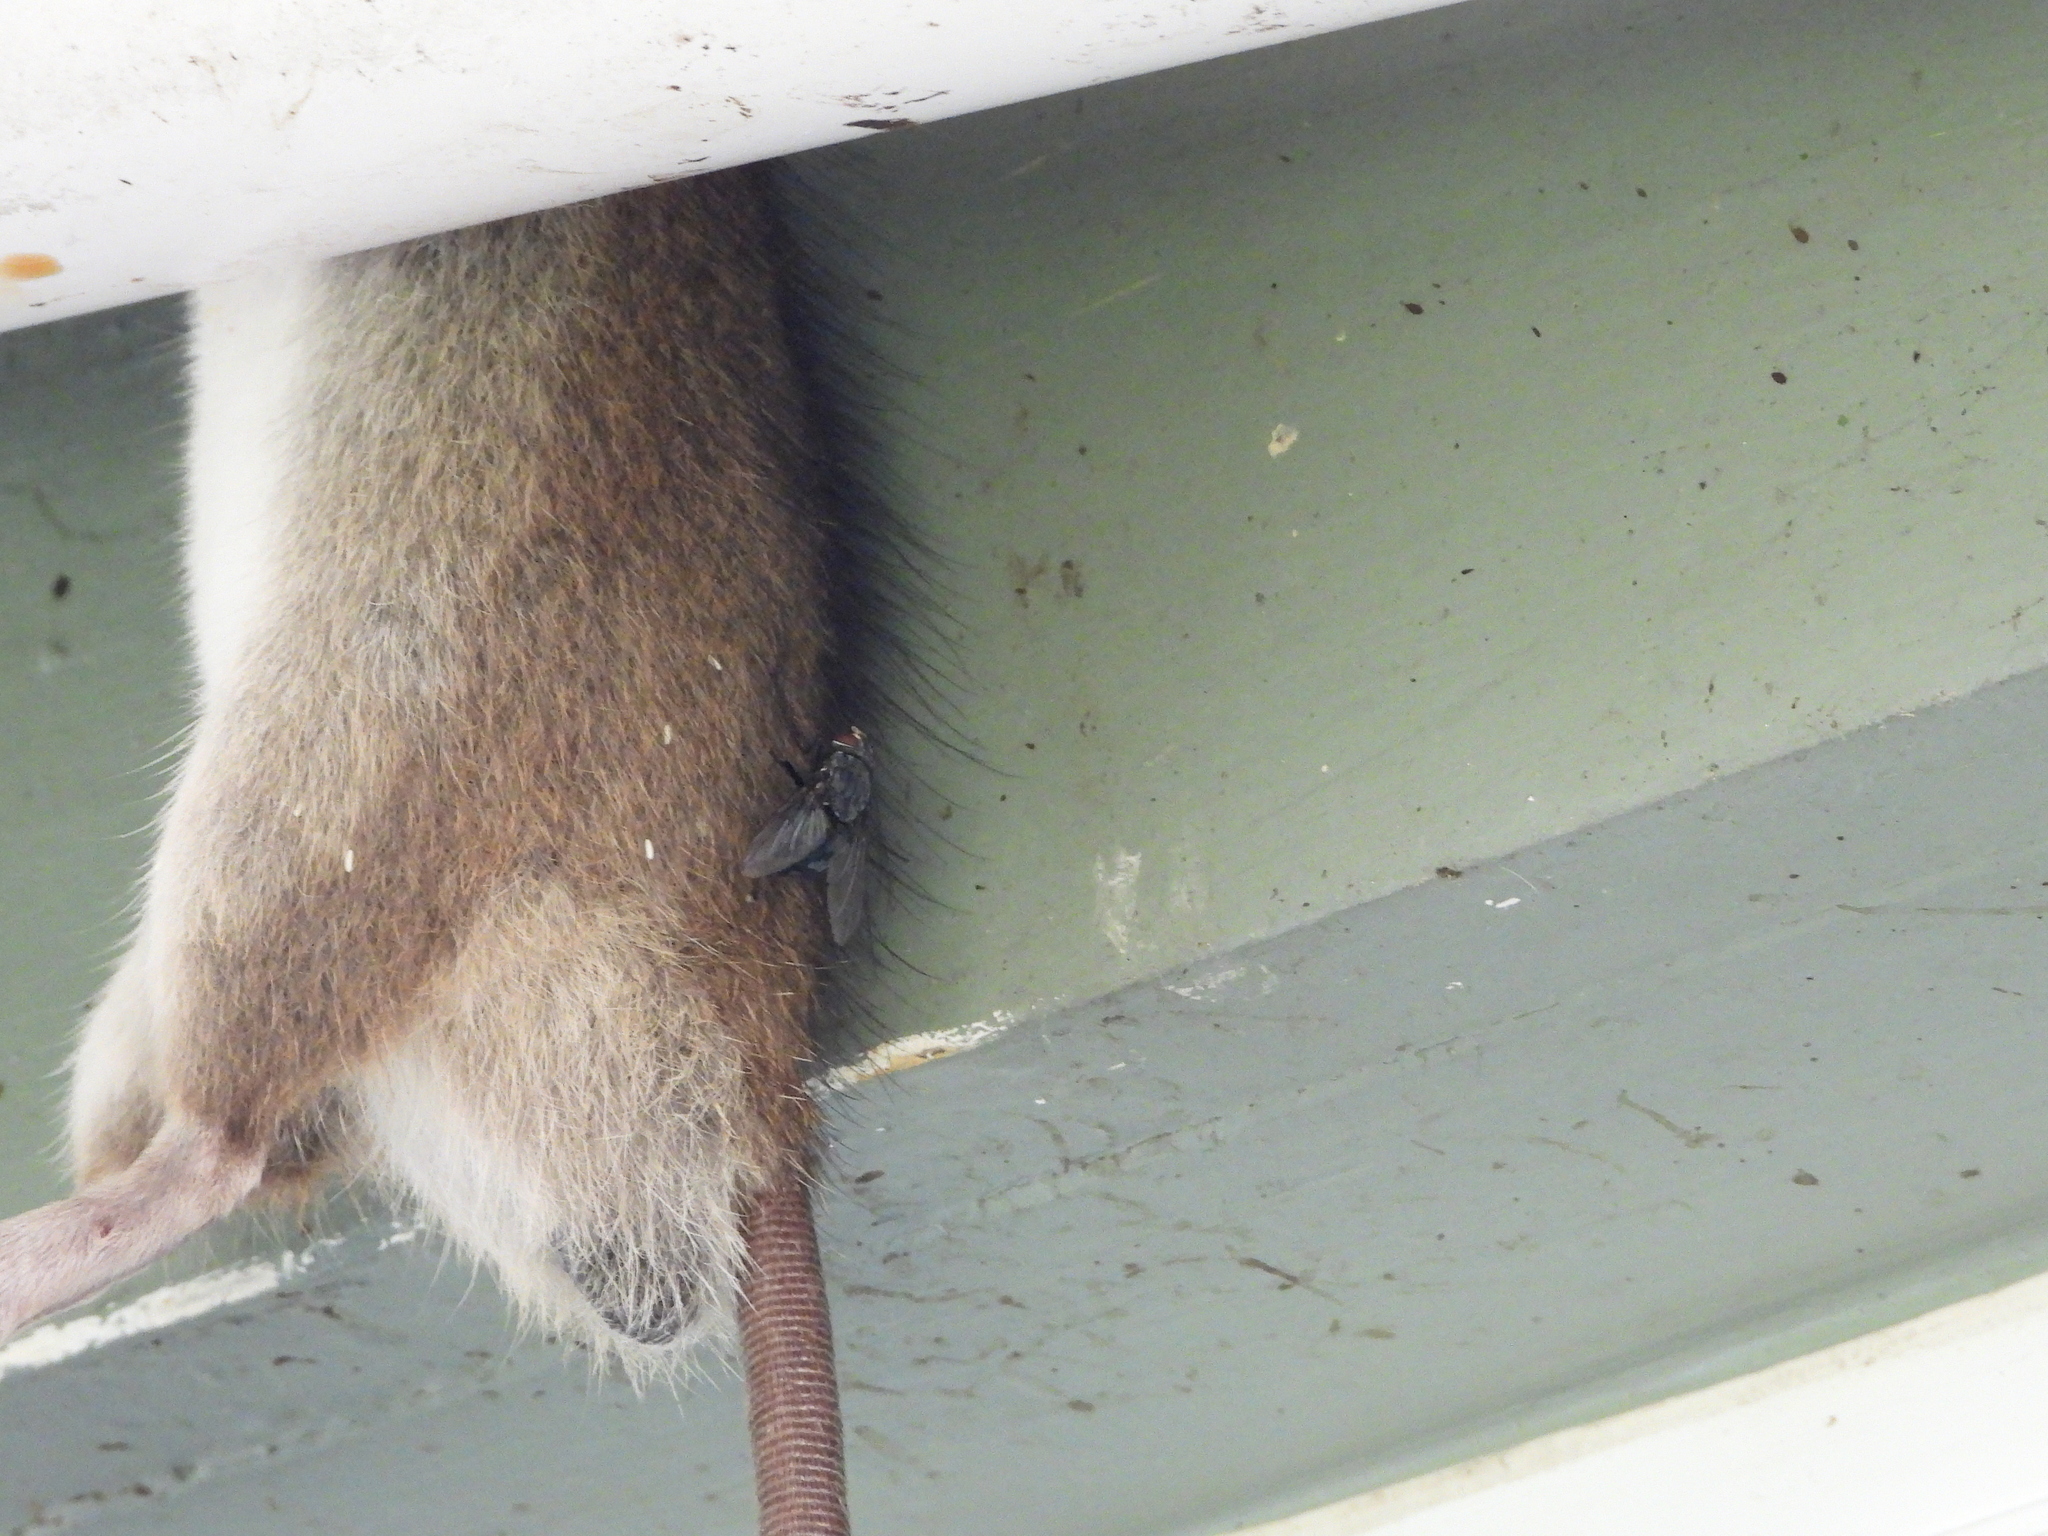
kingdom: Animalia
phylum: Arthropoda
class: Insecta
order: Diptera
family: Calliphoridae
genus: Calliphora
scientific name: Calliphora vicina
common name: Common blow flie
